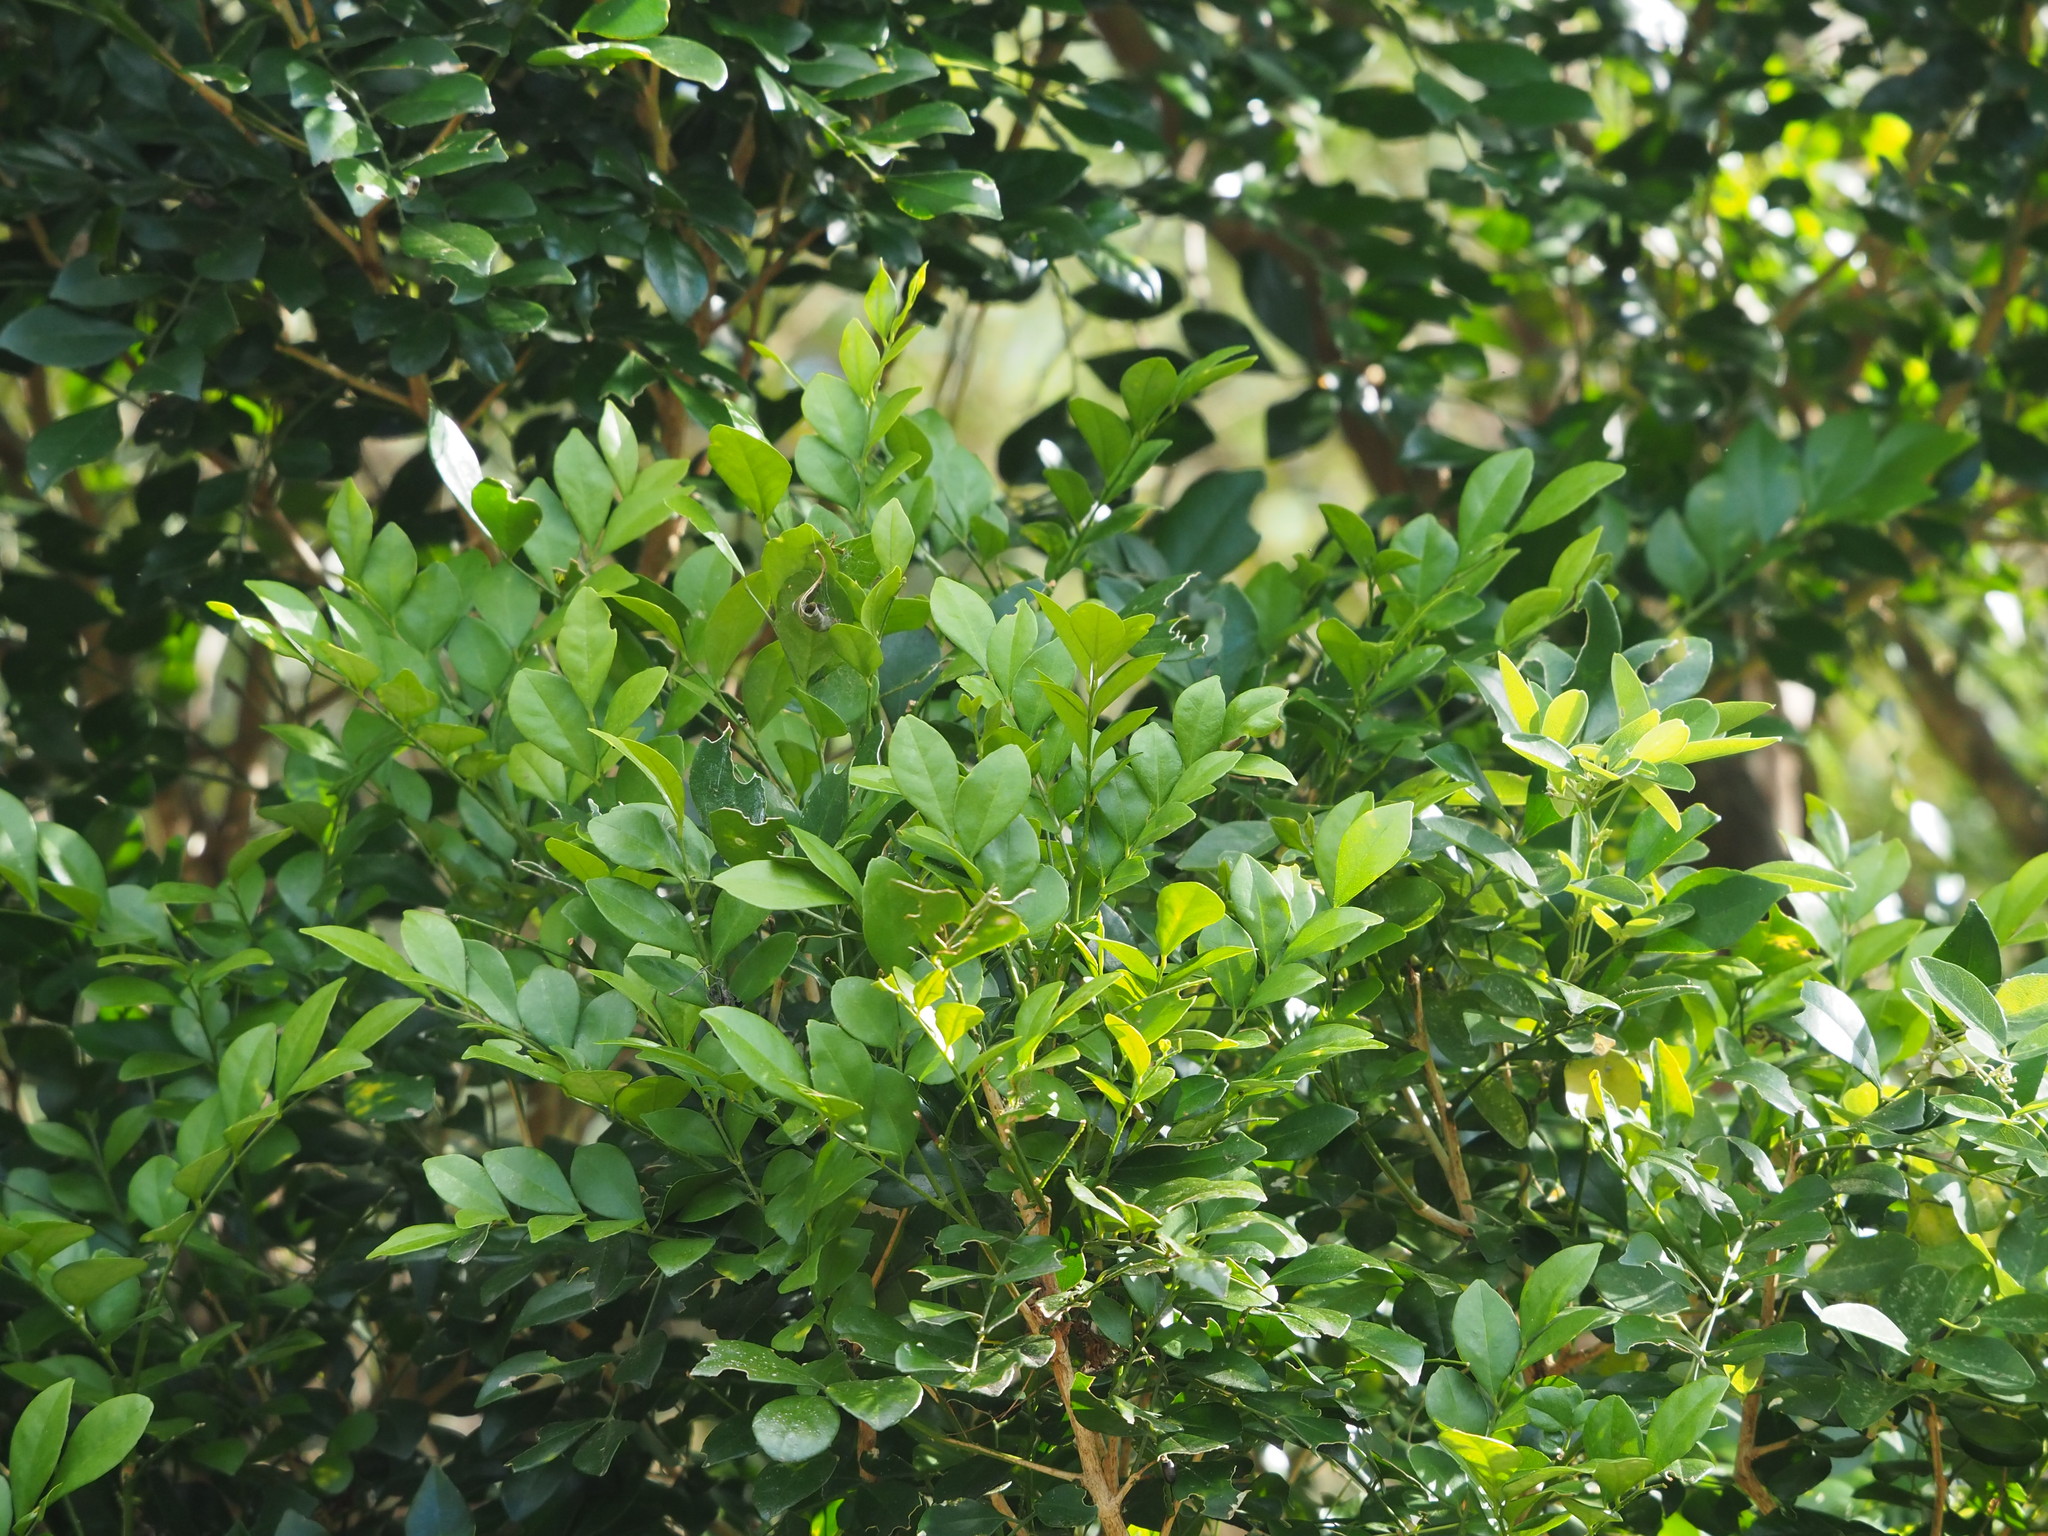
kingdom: Plantae
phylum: Tracheophyta
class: Magnoliopsida
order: Sapindales
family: Rutaceae
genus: Murraya
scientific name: Murraya paniculata
